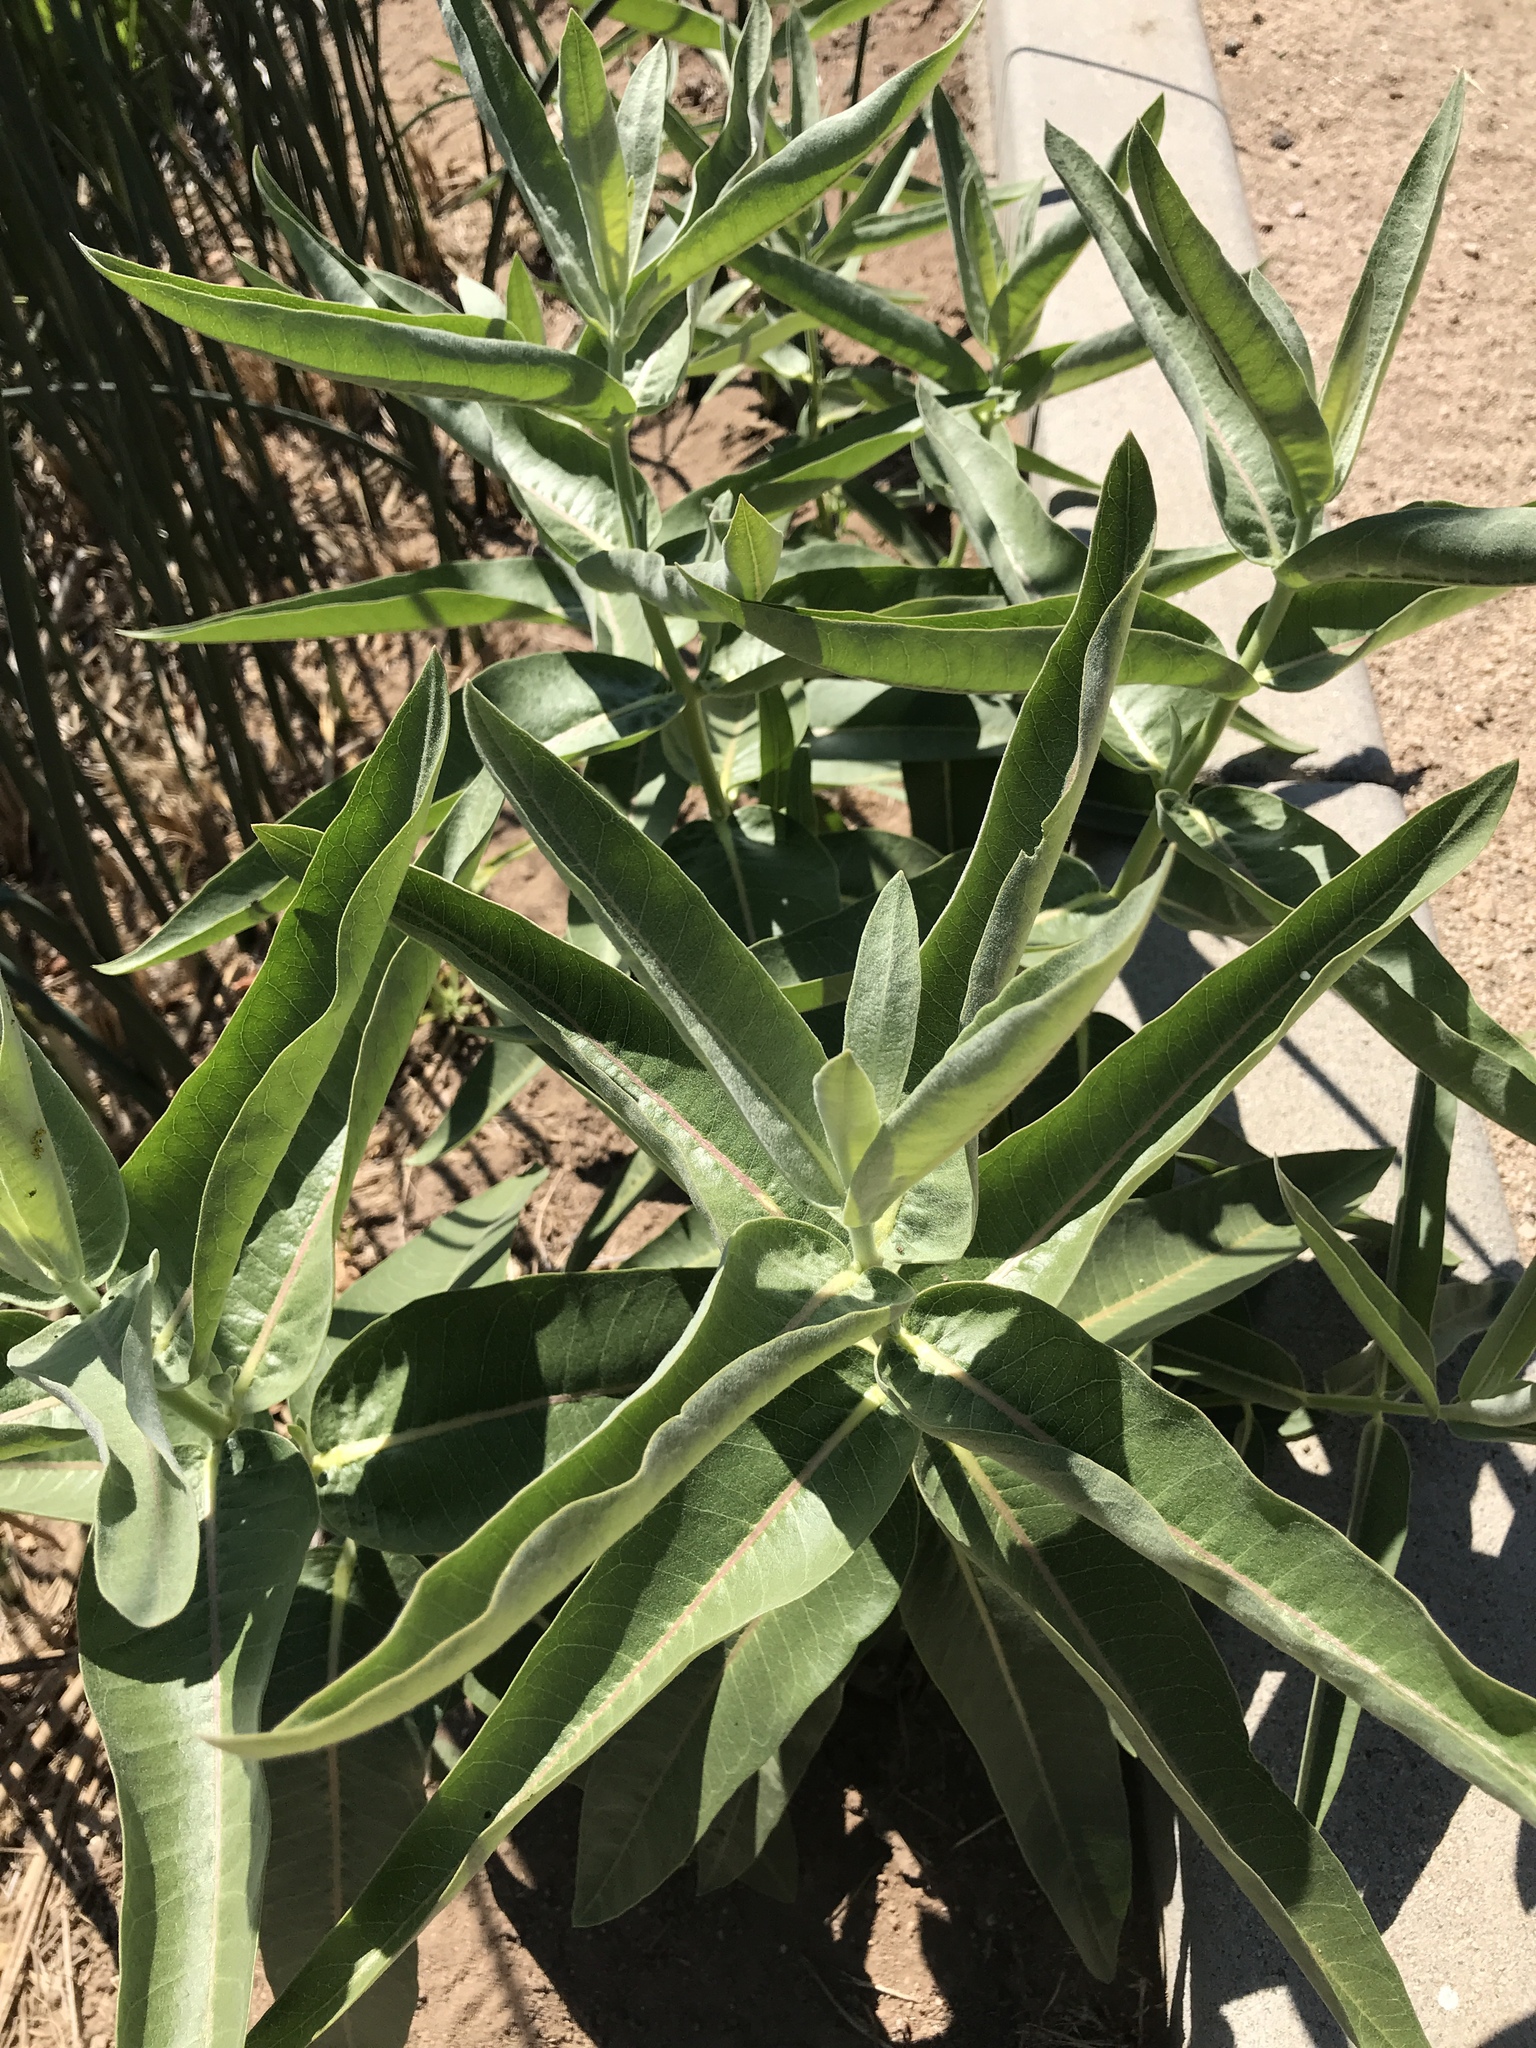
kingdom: Plantae
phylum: Tracheophyta
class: Magnoliopsida
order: Gentianales
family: Apocynaceae
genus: Asclepias
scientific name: Asclepias speciosa
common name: Showy milkweed
